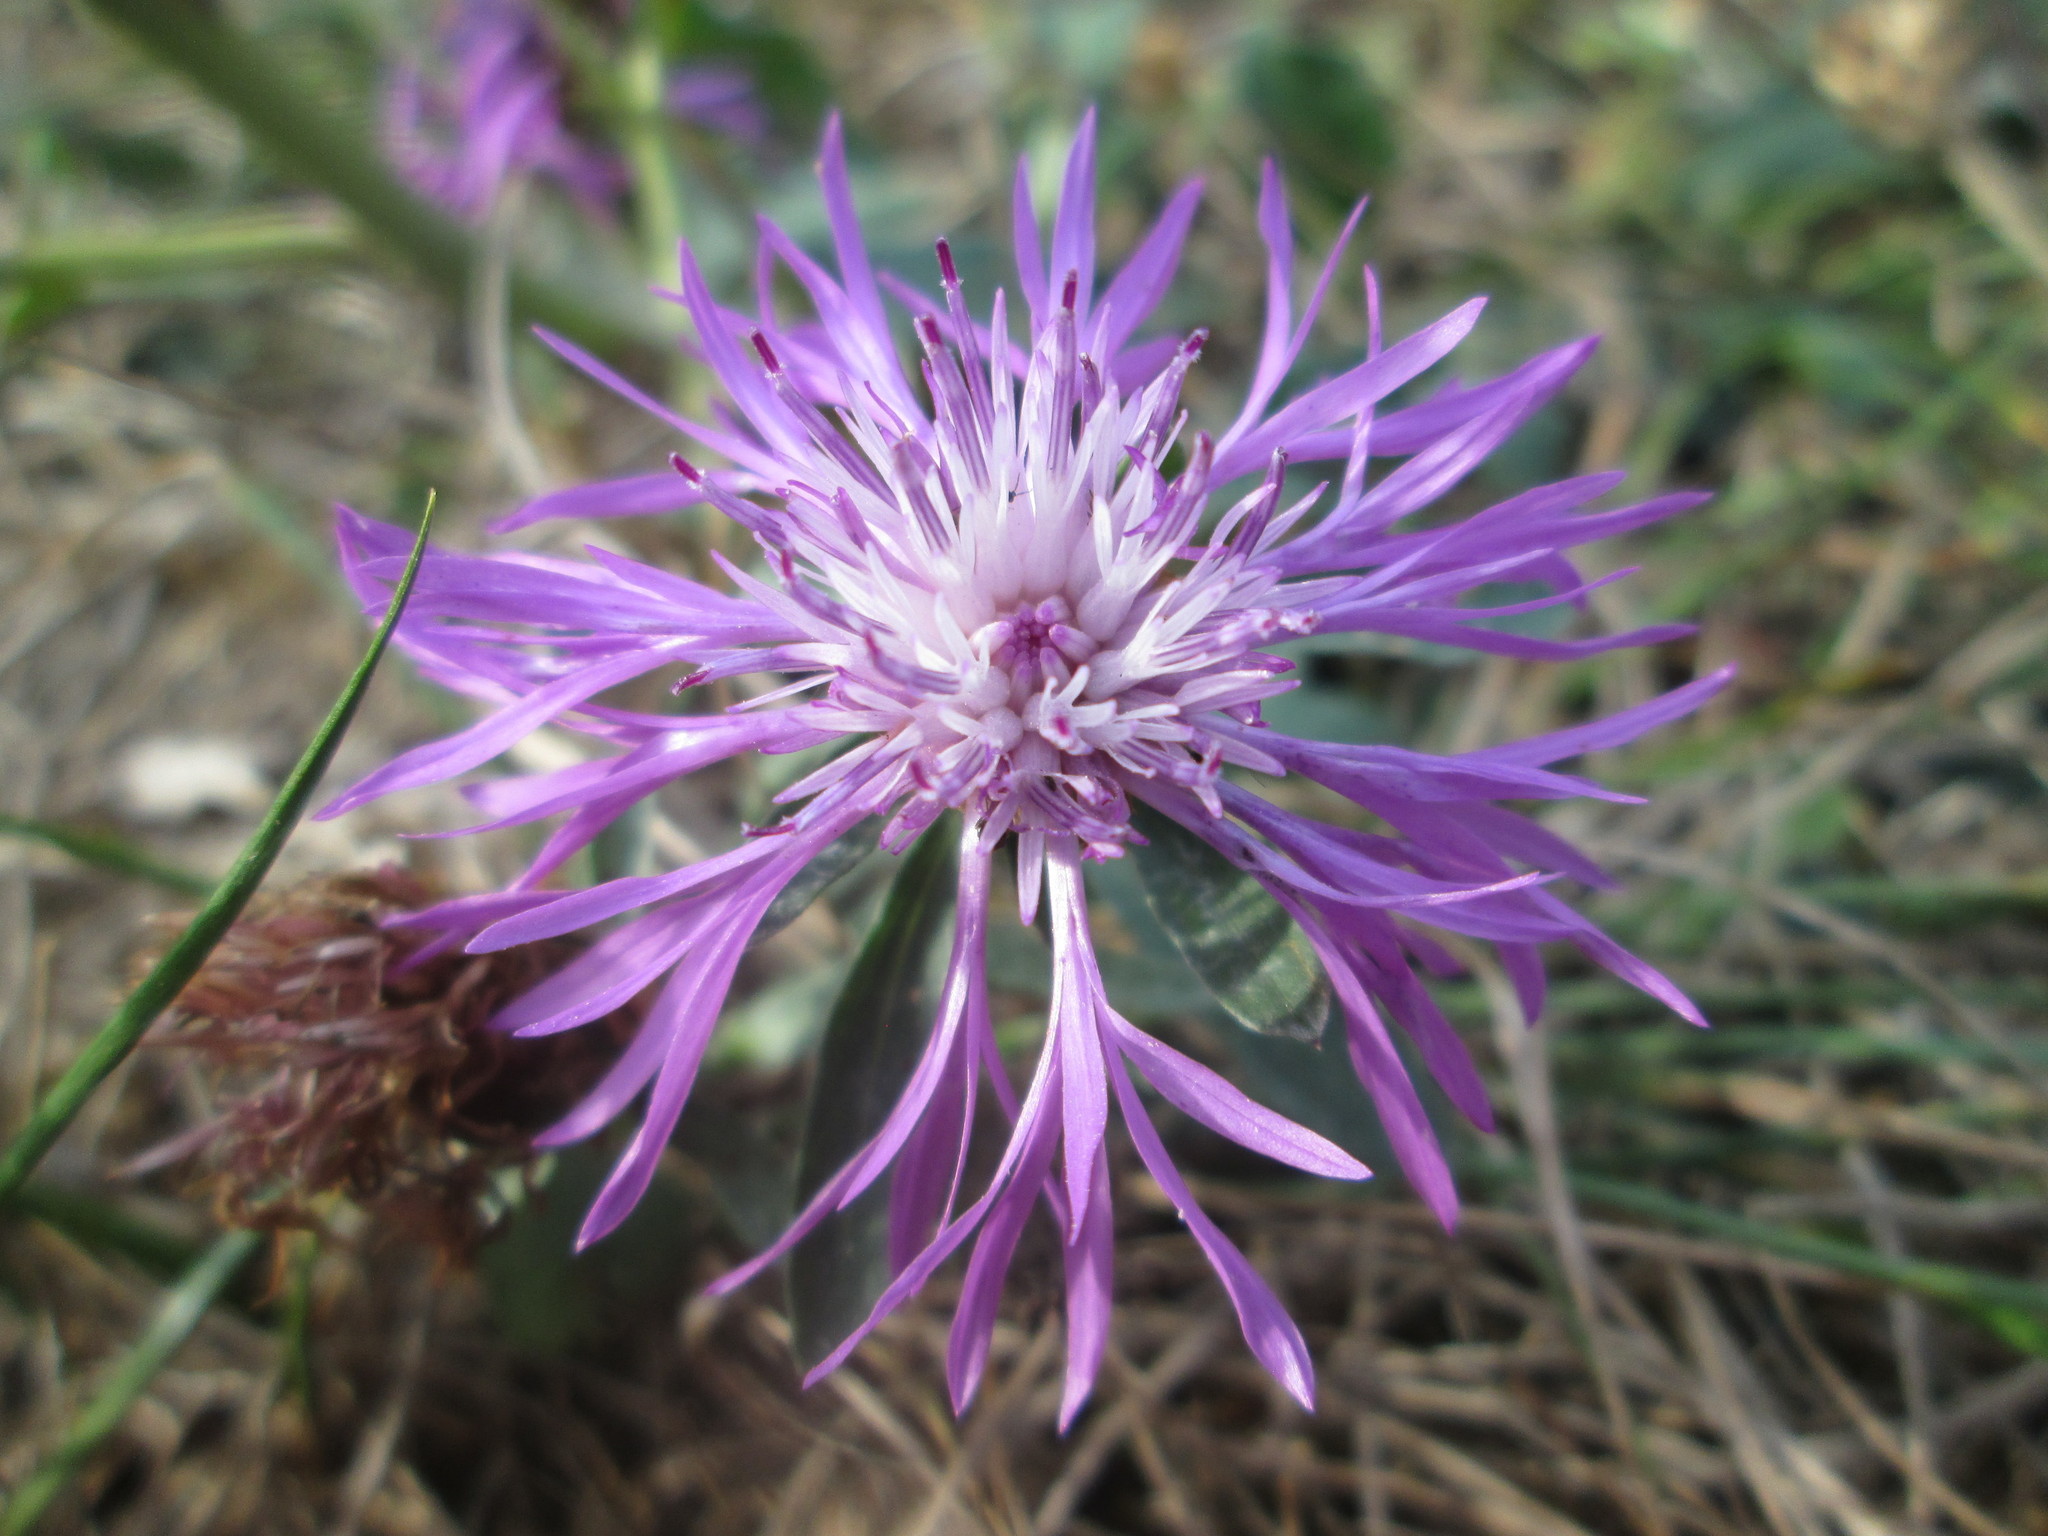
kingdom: Plantae
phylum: Tracheophyta
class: Magnoliopsida
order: Asterales
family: Asteraceae
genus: Centaurea
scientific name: Centaurea jacea
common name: Brown knapweed
